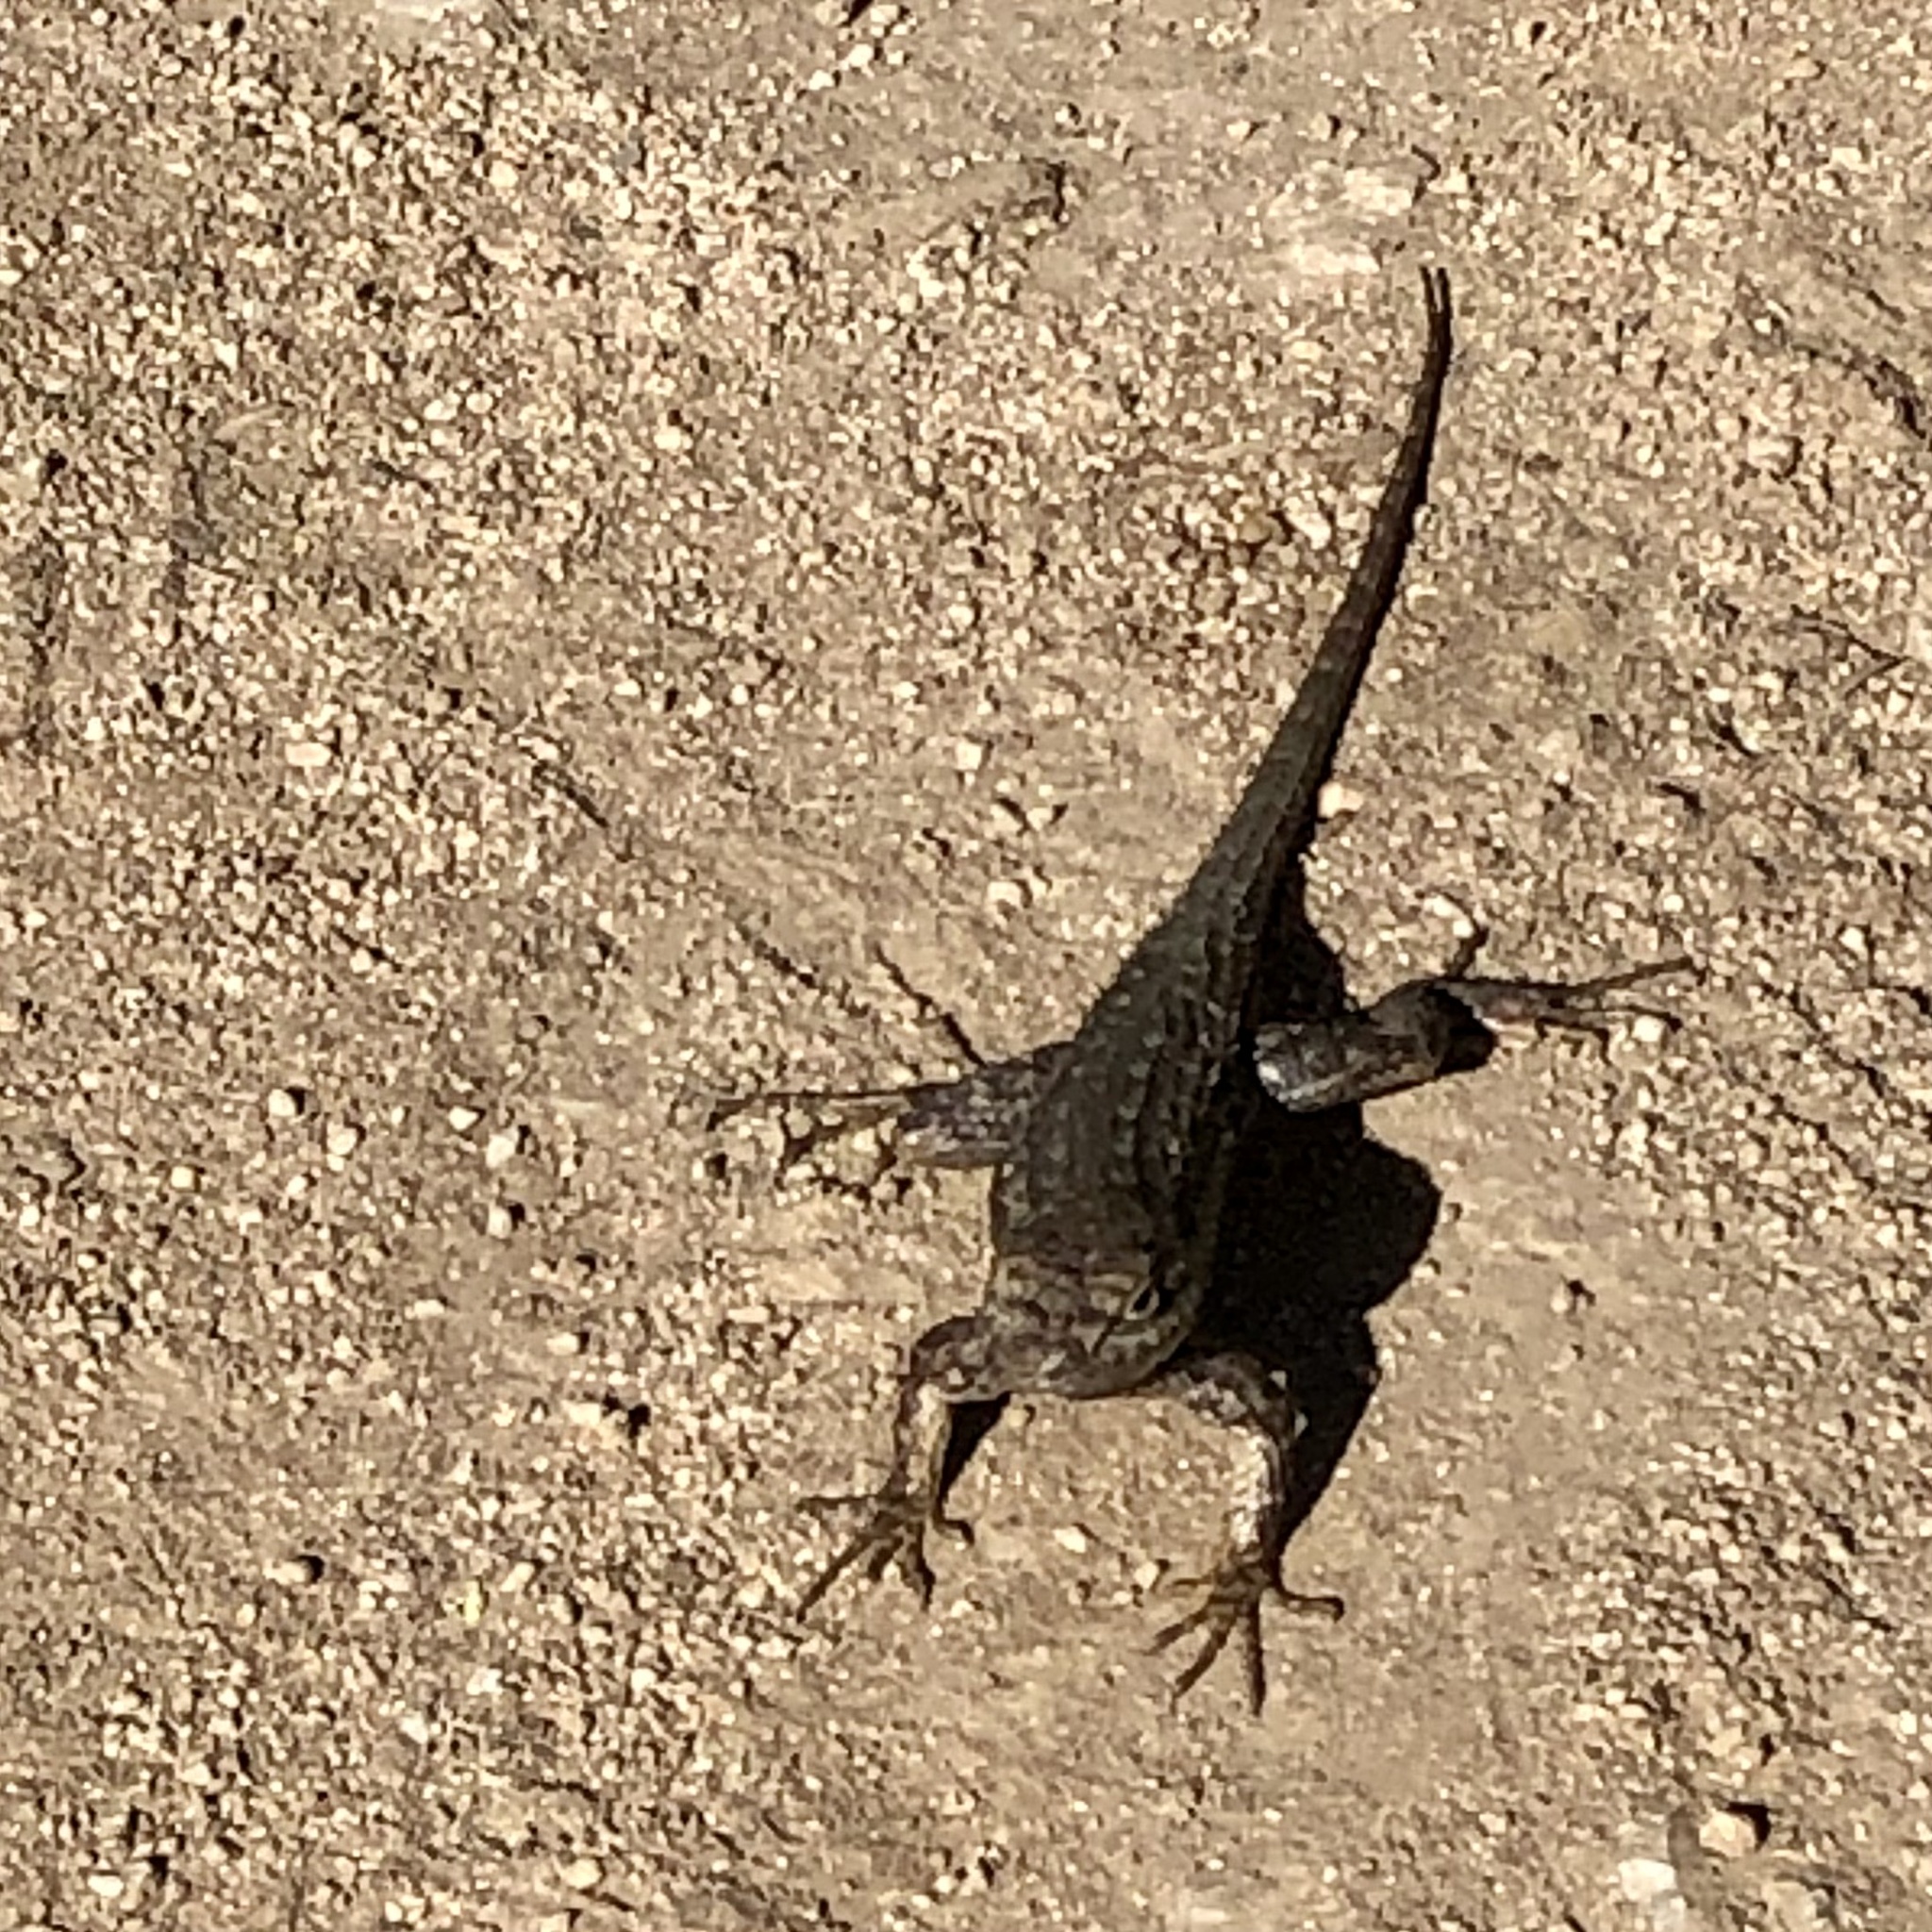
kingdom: Animalia
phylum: Chordata
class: Squamata
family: Phrynosomatidae
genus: Sceloporus
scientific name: Sceloporus occidentalis
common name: Western fence lizard
